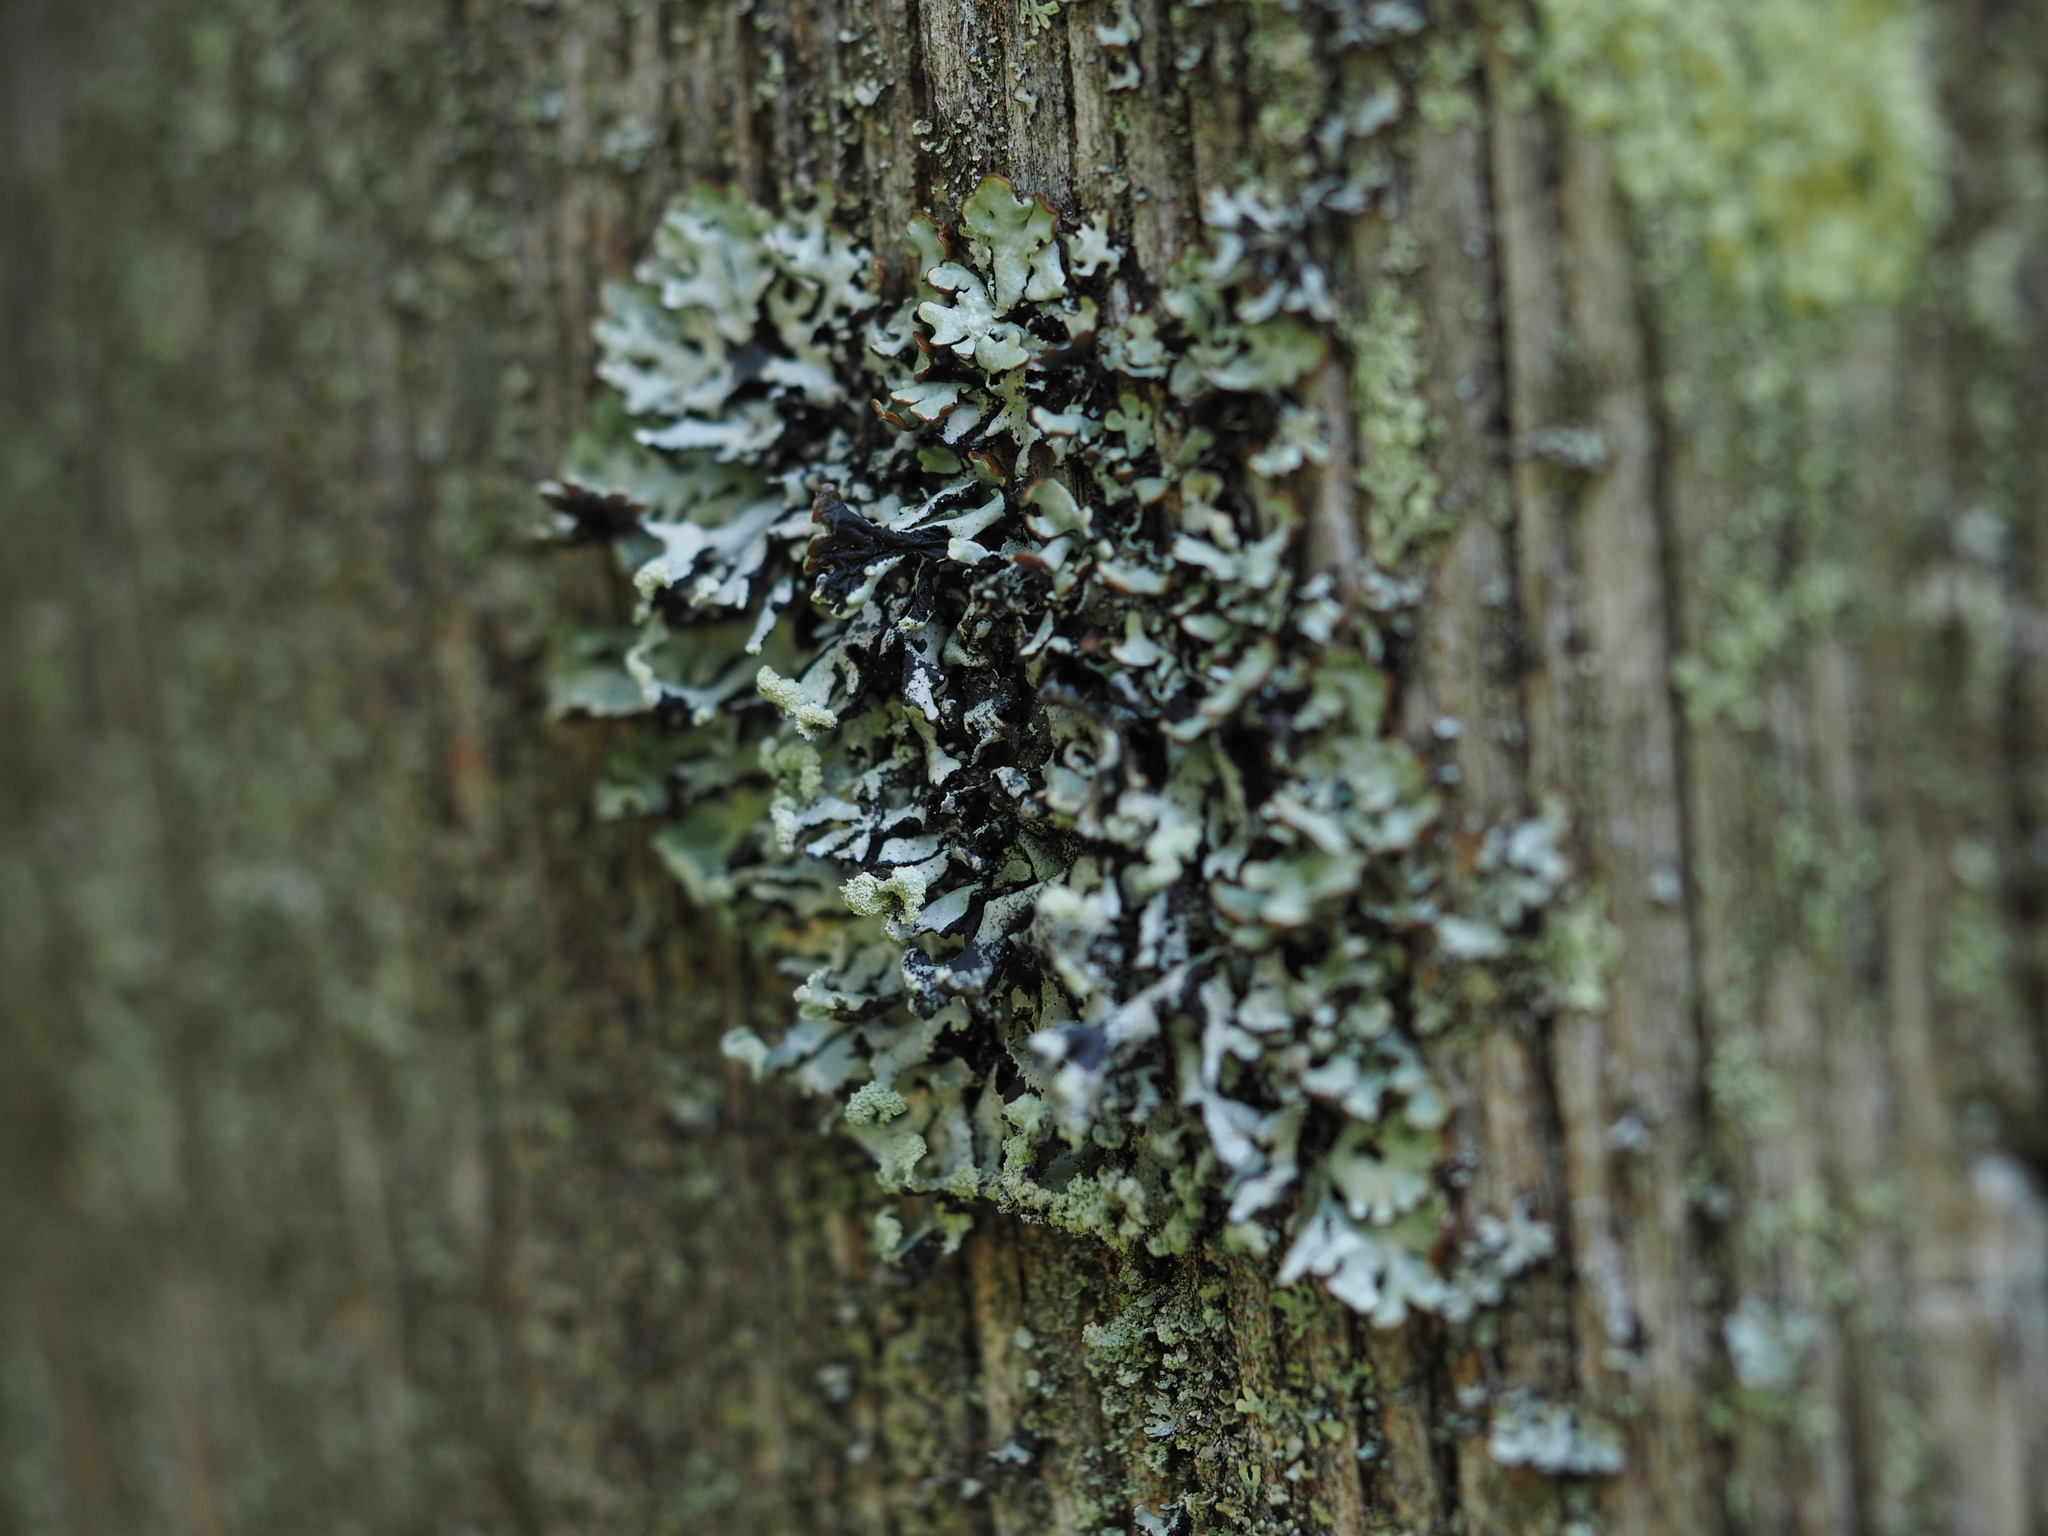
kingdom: Fungi
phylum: Ascomycota
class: Lecanoromycetes
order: Lecanorales
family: Parmeliaceae
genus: Hypogymnia
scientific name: Hypogymnia physodes
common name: Dark crottle
